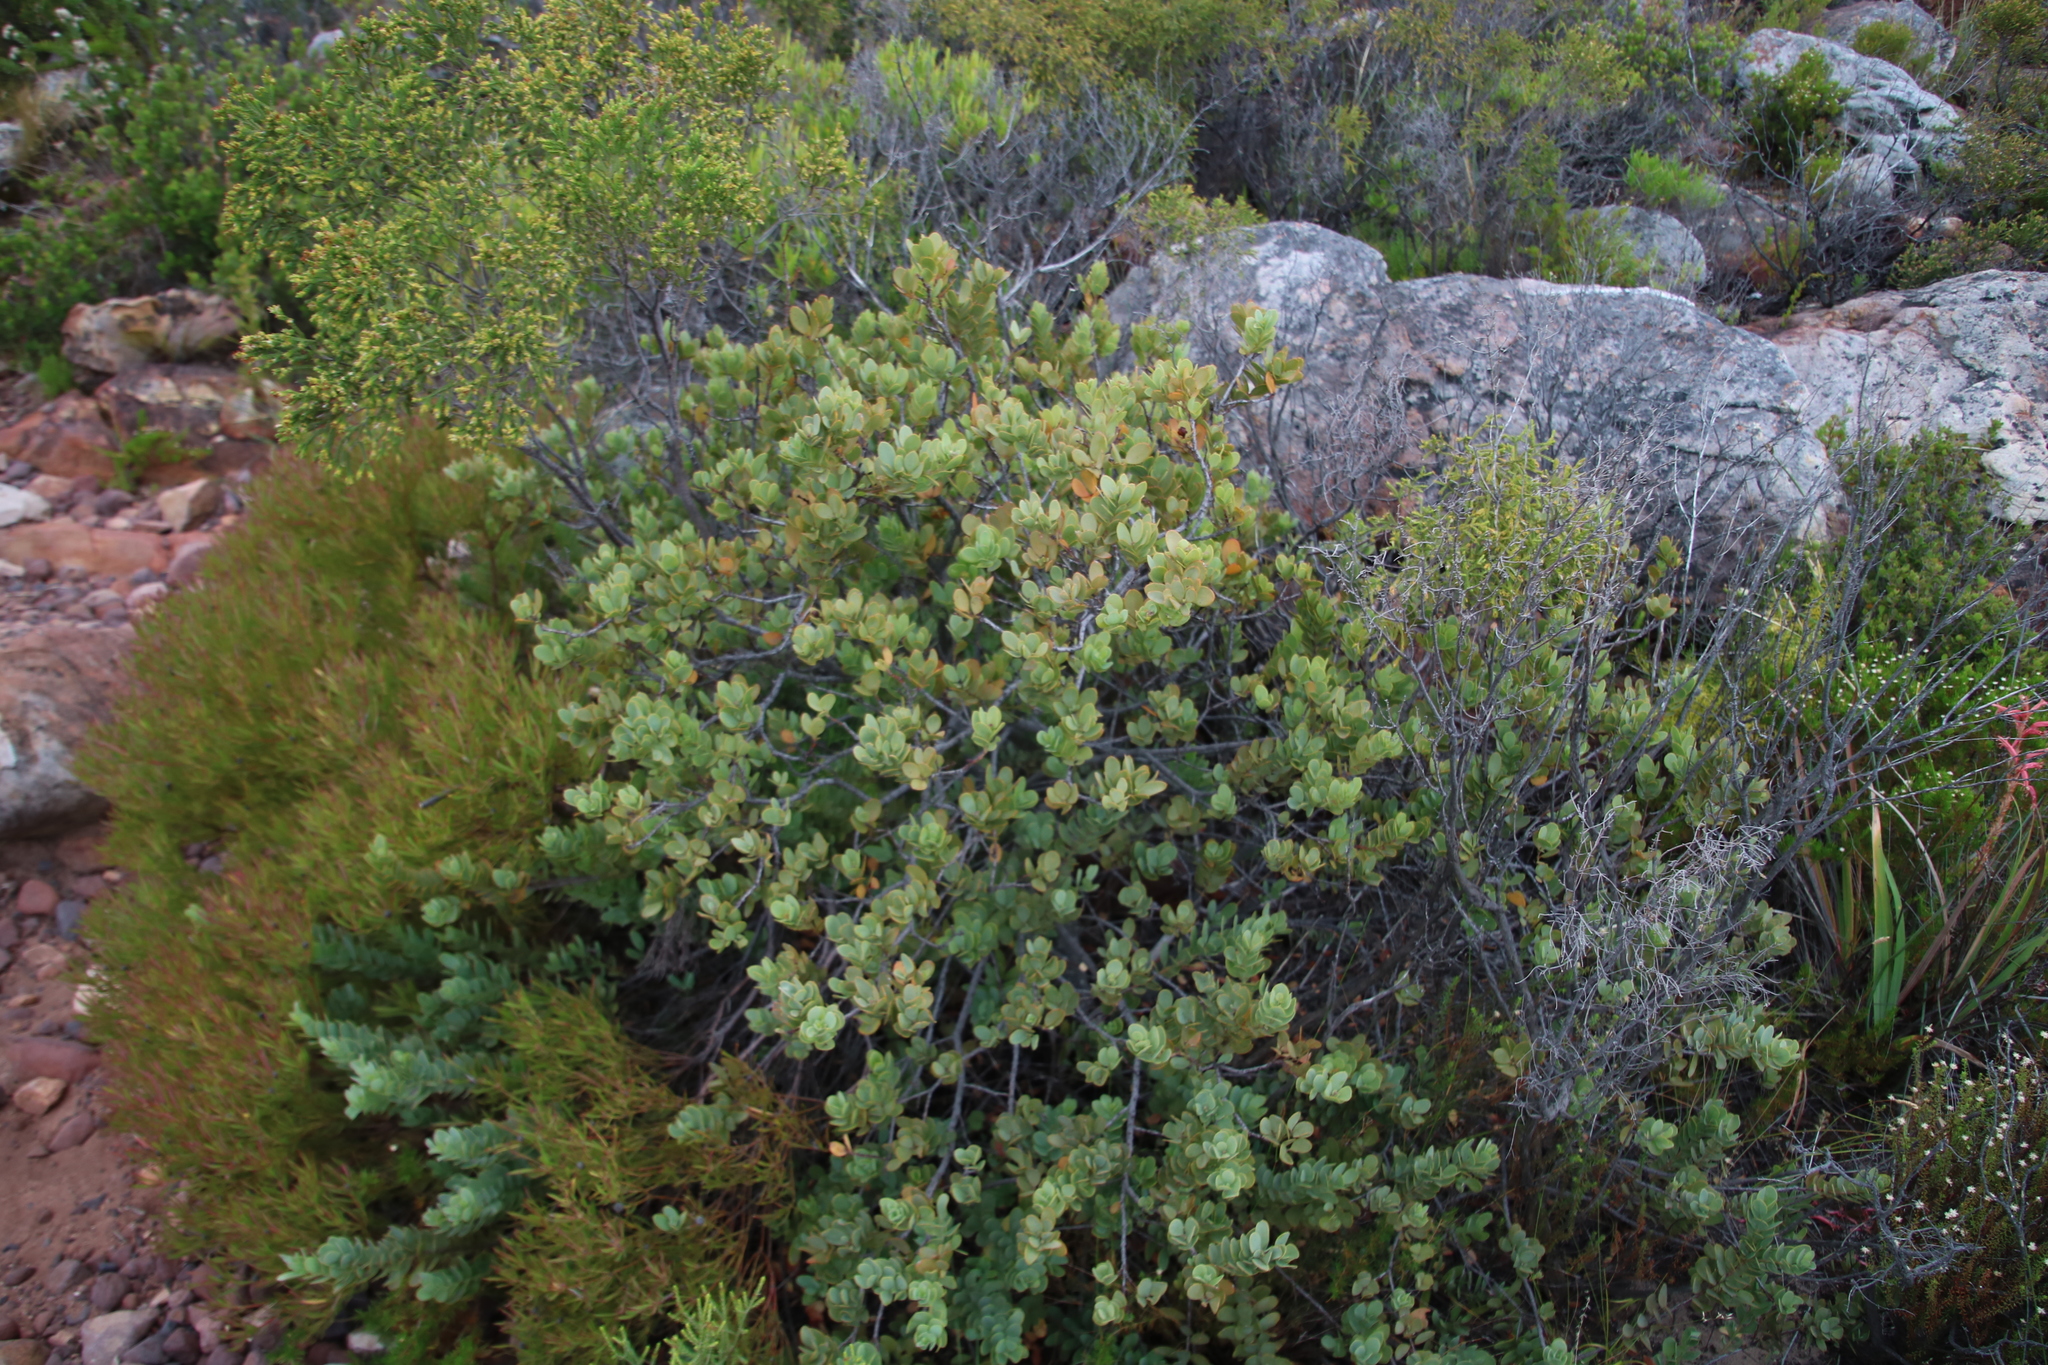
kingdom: Plantae
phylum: Tracheophyta
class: Magnoliopsida
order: Santalales
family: Santalaceae
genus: Osyris
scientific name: Osyris compressa
